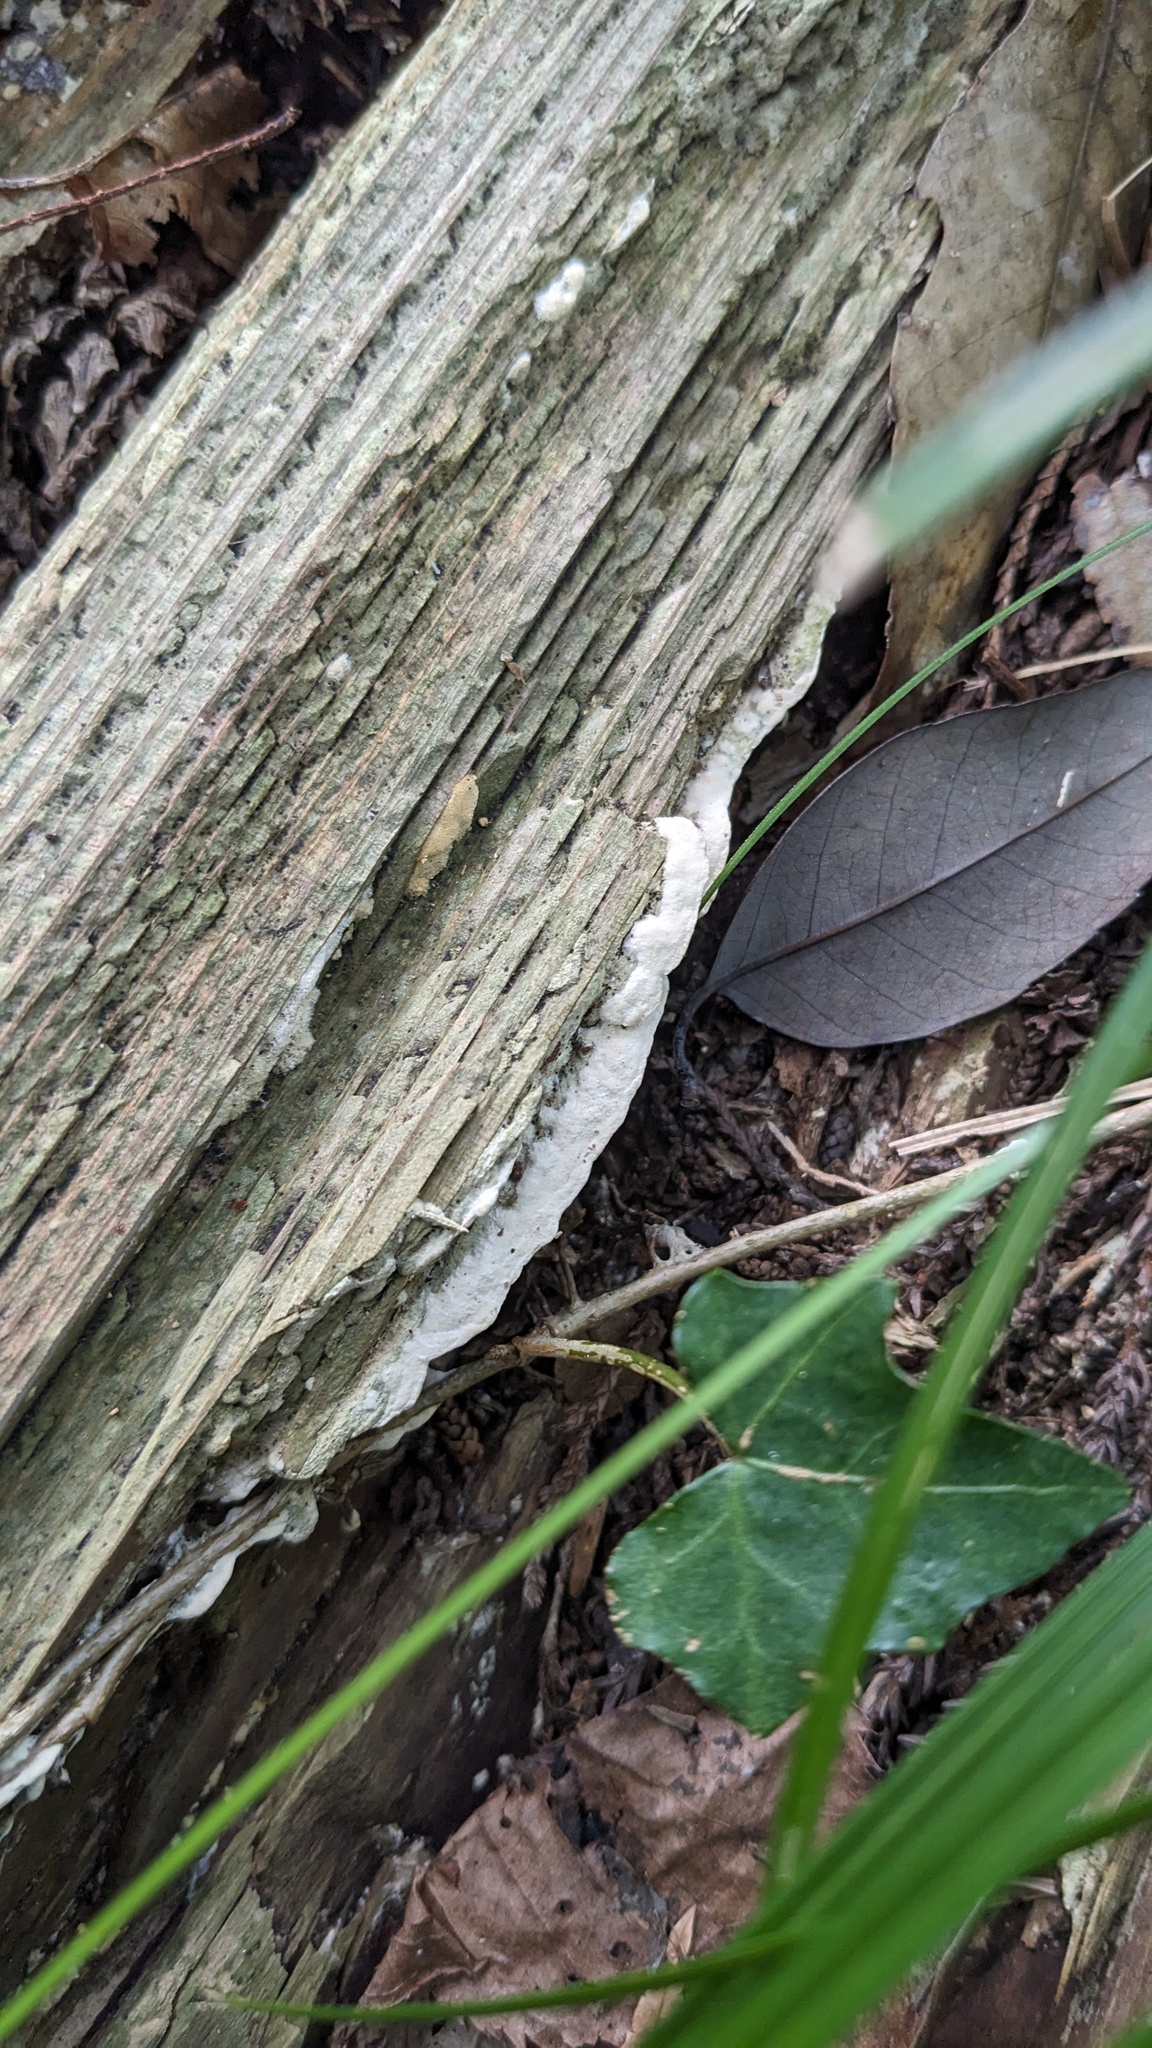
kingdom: Fungi
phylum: Basidiomycota
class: Agaricomycetes
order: Hymenochaetales
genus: Cyanotrama
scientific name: Cyanotrama
